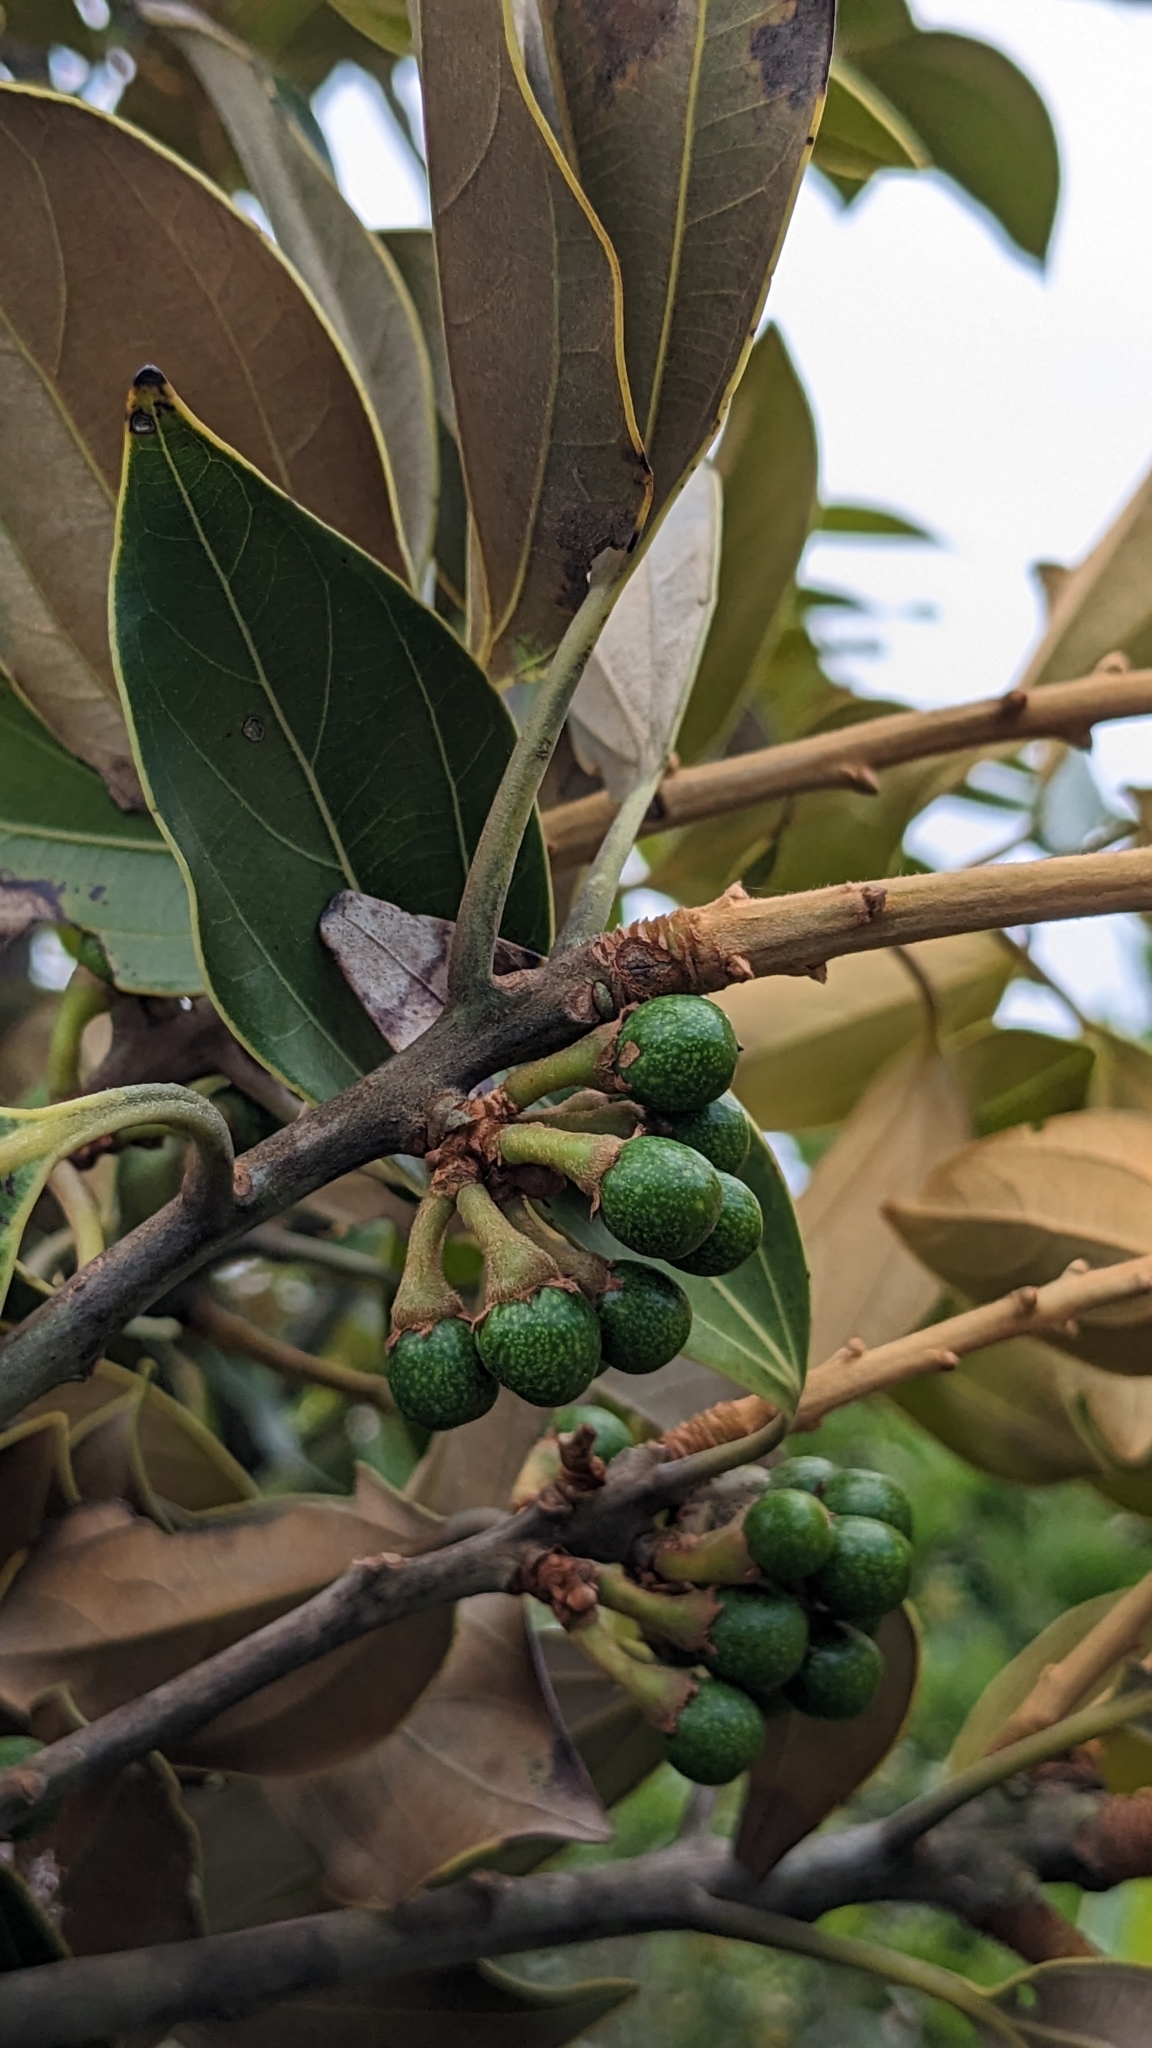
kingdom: Plantae
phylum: Tracheophyta
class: Magnoliopsida
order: Laurales
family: Lauraceae
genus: Neolitsea
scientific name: Neolitsea aurata
